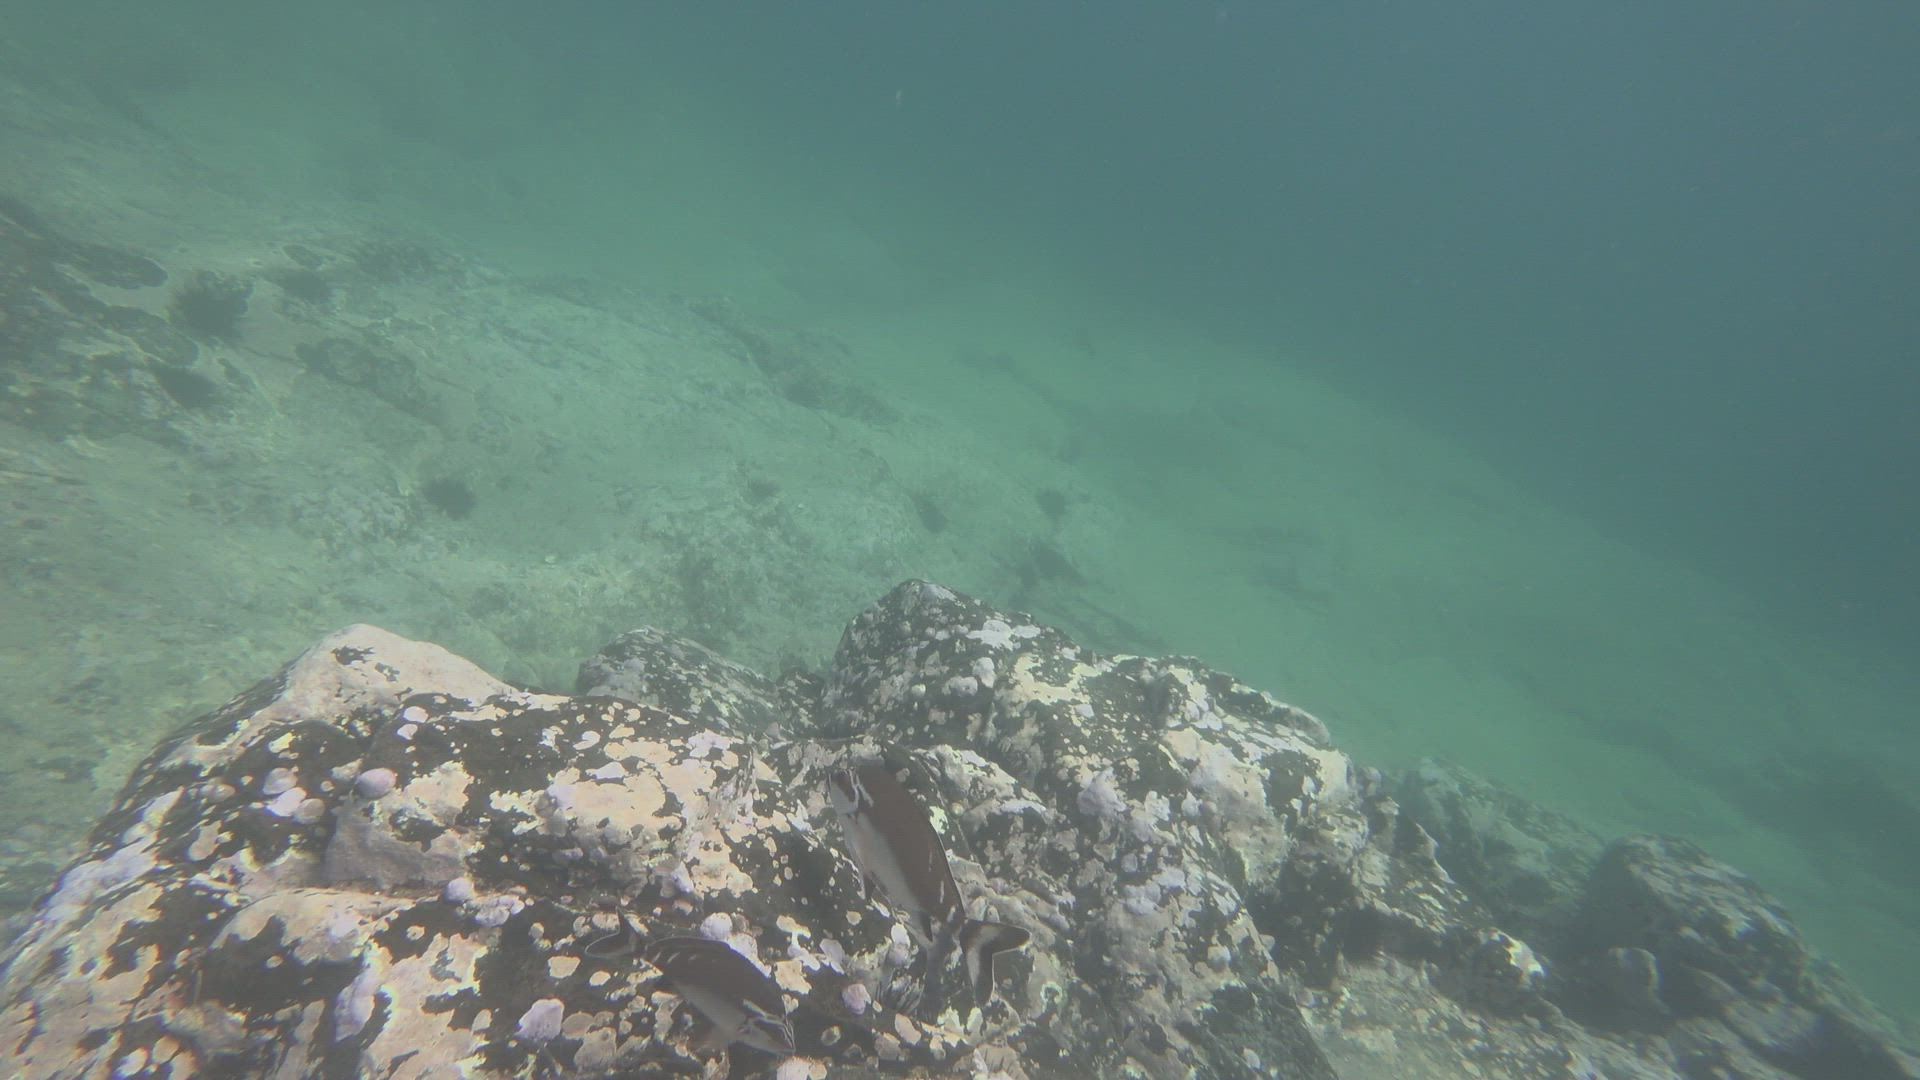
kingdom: Animalia
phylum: Chordata
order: Perciformes
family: Latridae
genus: Morwong
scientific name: Morwong fuscus
